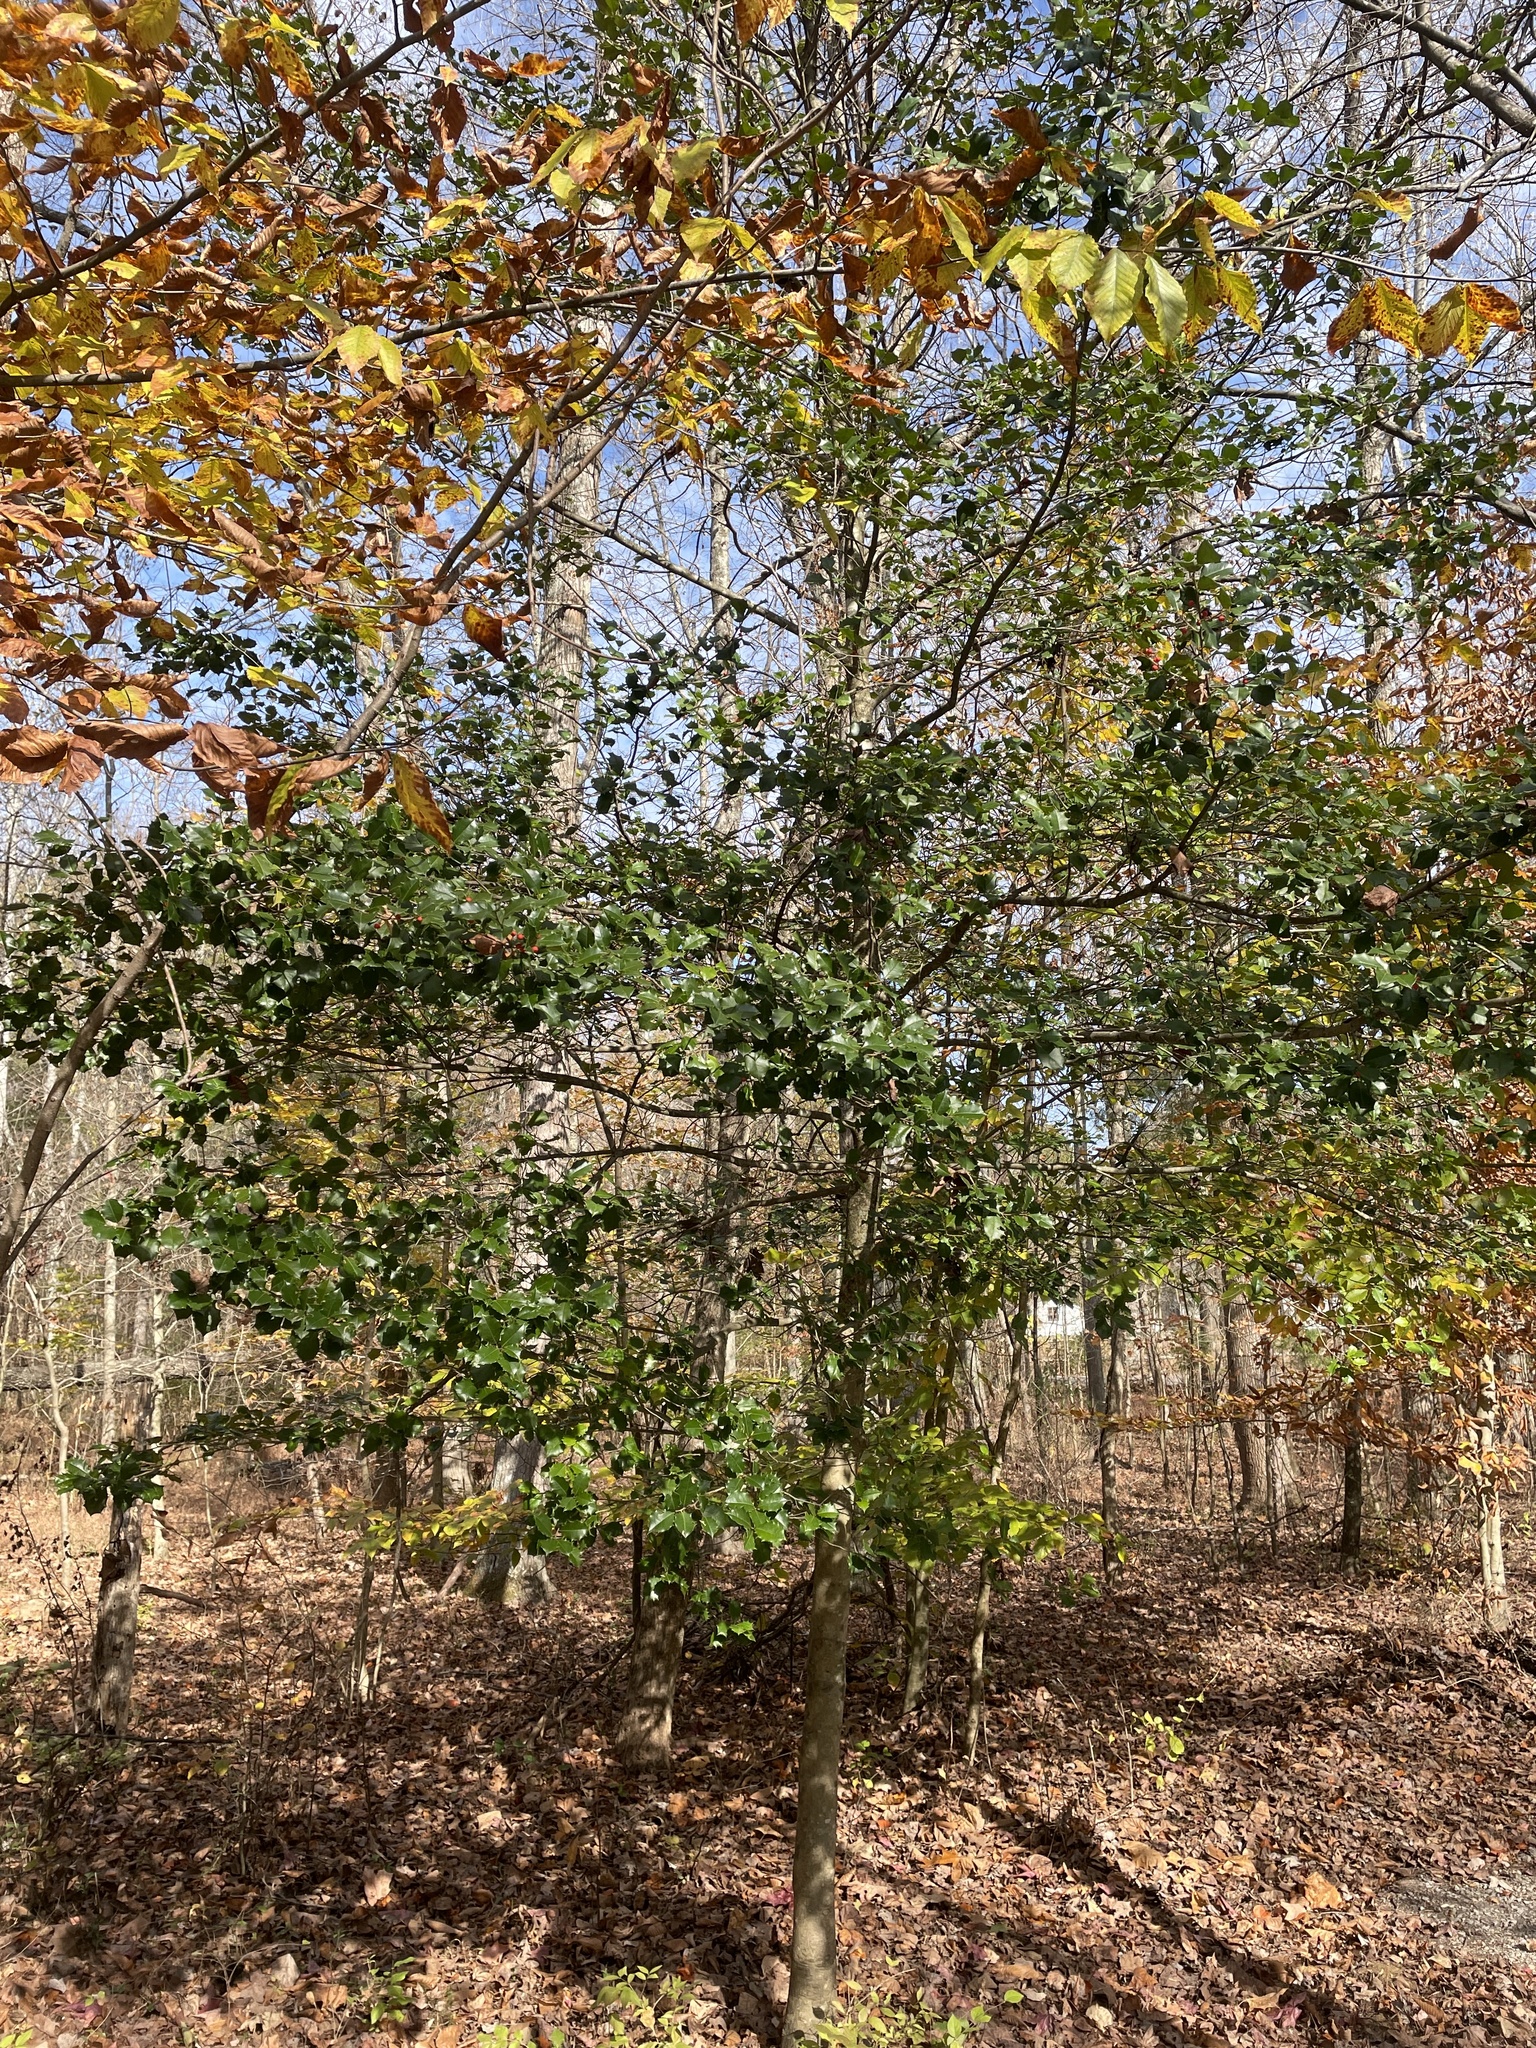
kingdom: Plantae
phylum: Tracheophyta
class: Magnoliopsida
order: Aquifoliales
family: Aquifoliaceae
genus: Ilex
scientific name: Ilex opaca
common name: American holly
